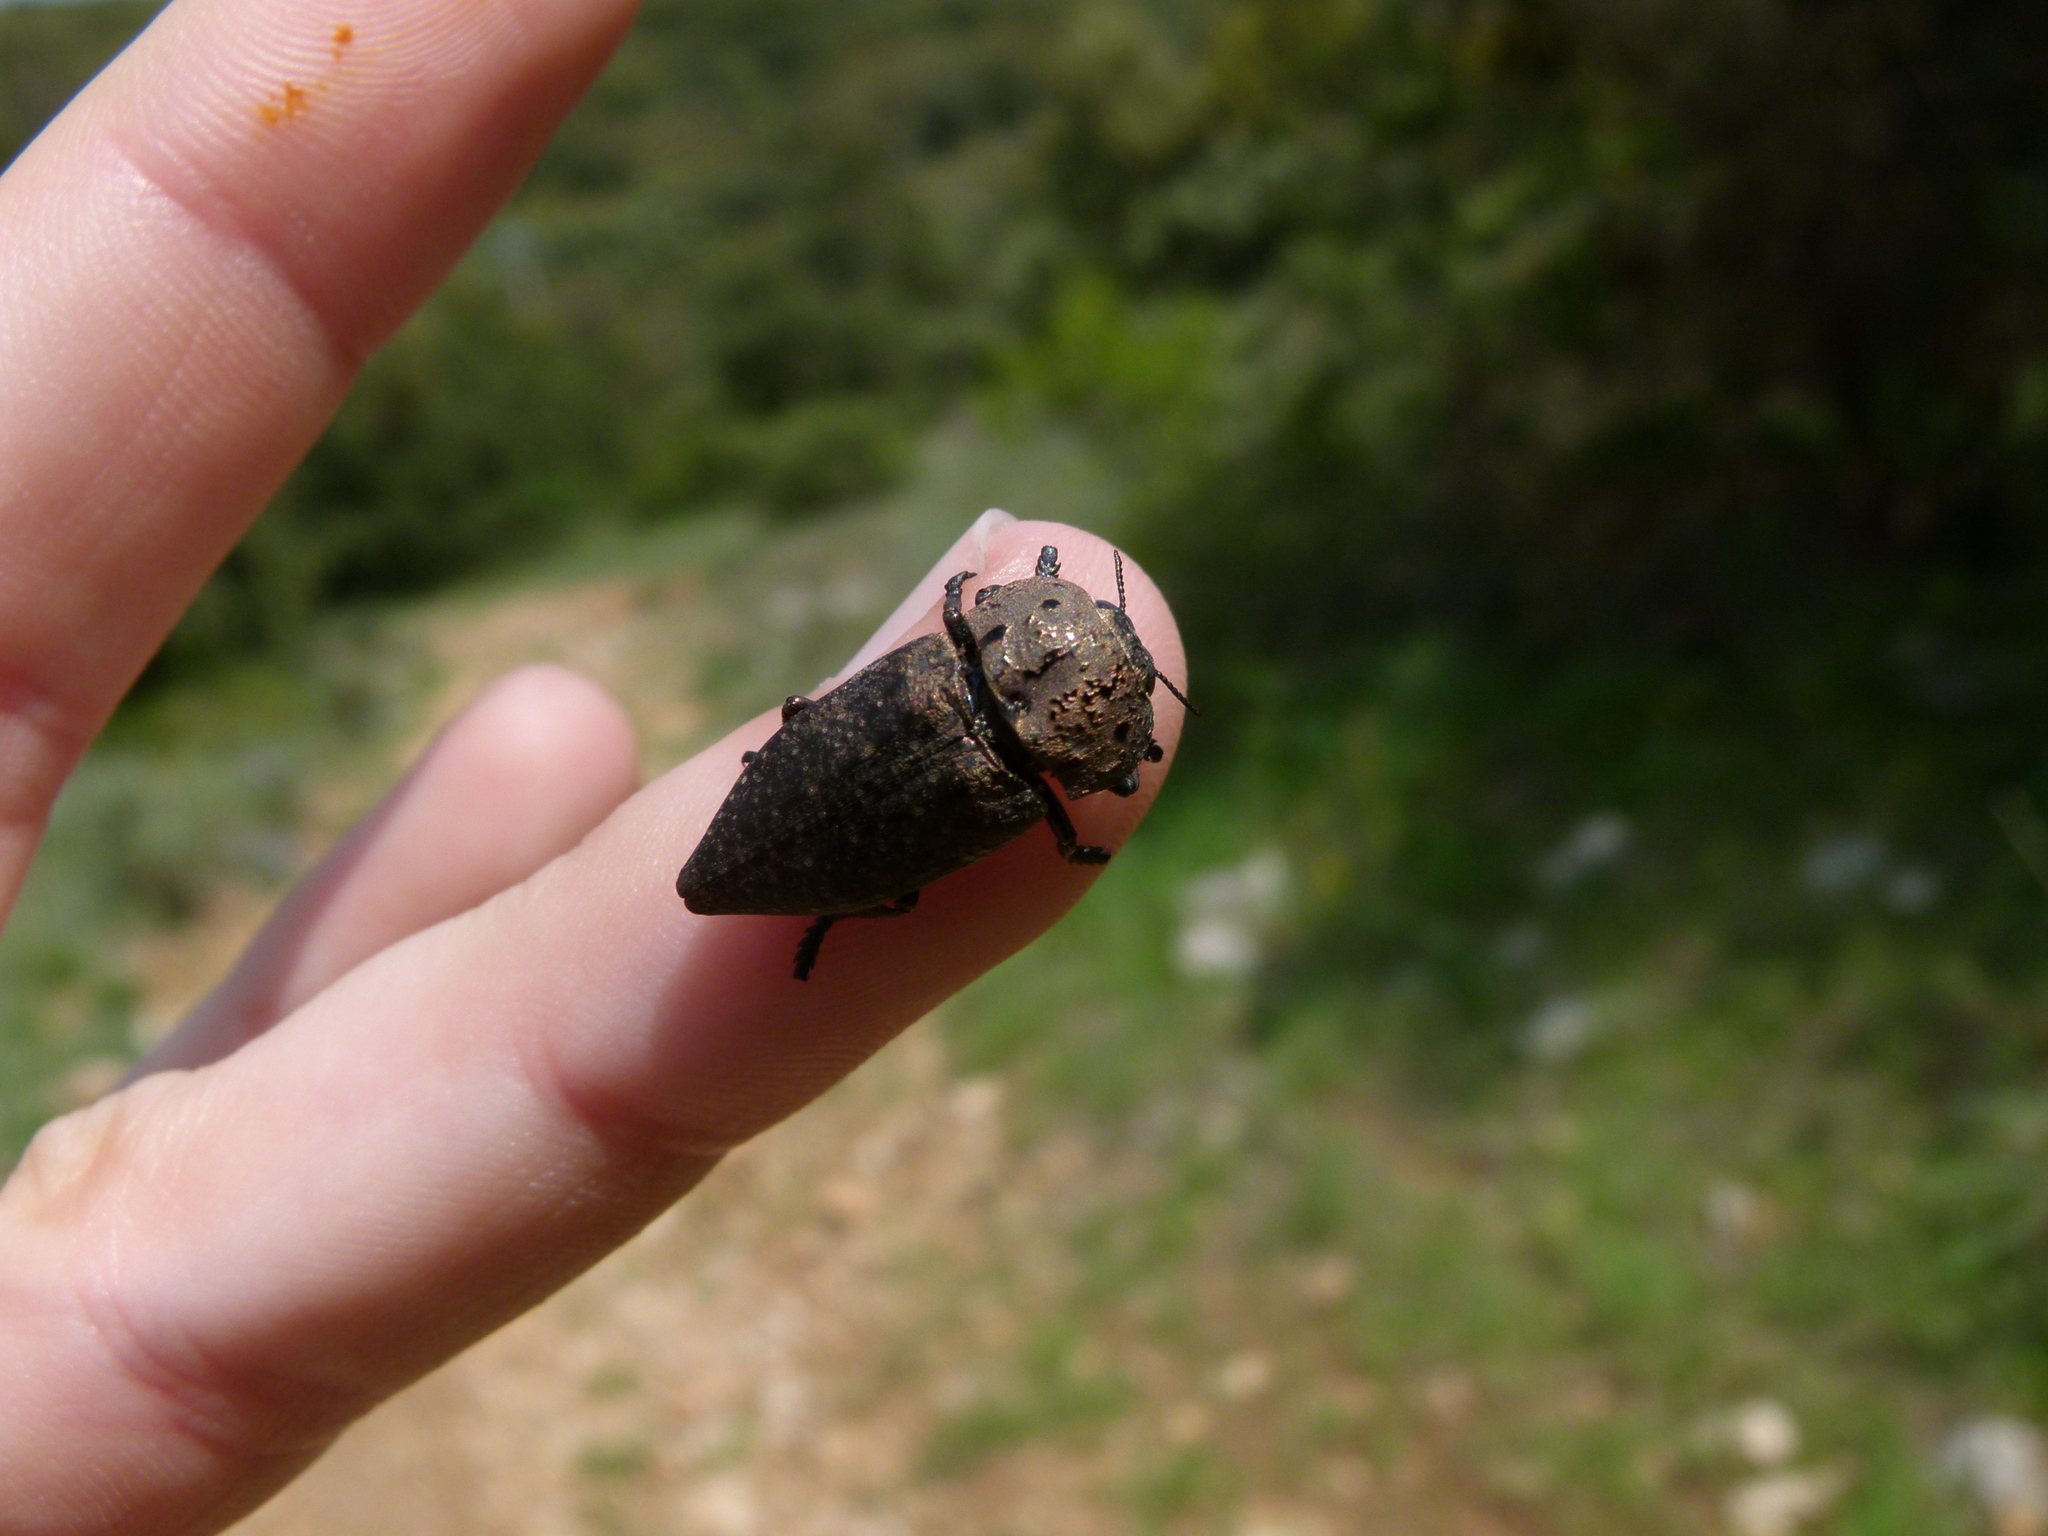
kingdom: Animalia
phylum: Arthropoda
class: Insecta
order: Coleoptera
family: Buprestidae
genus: Capnodis
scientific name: Capnodis tenebricosa
